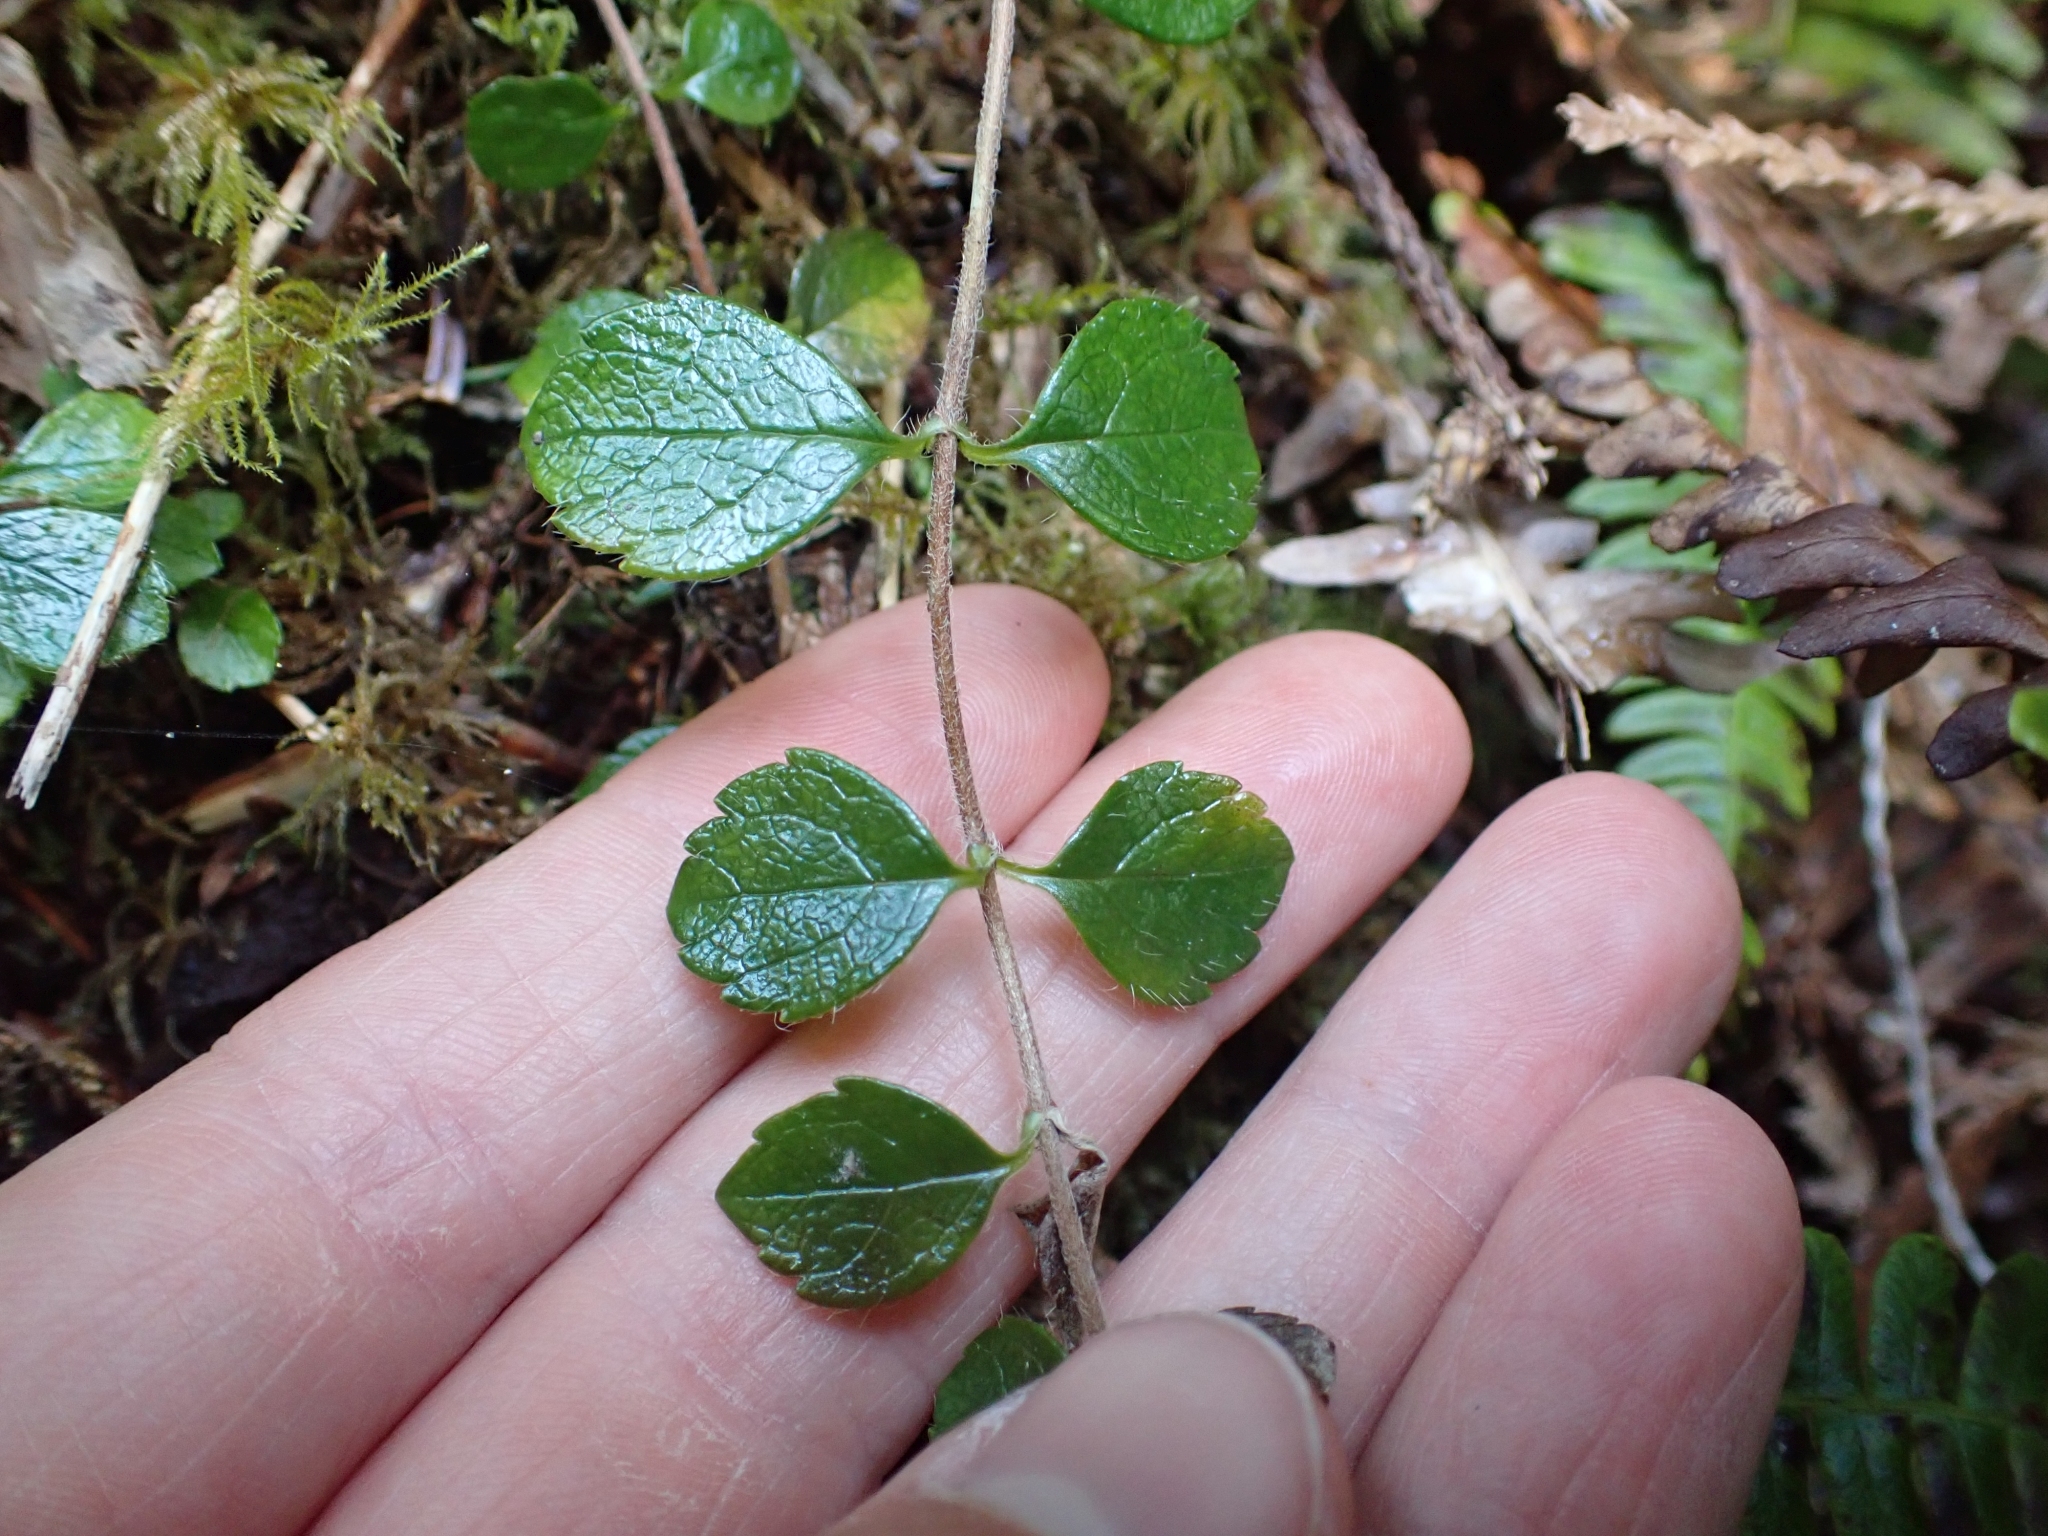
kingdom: Plantae
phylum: Tracheophyta
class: Magnoliopsida
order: Dipsacales
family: Caprifoliaceae
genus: Linnaea
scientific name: Linnaea borealis
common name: Twinflower
